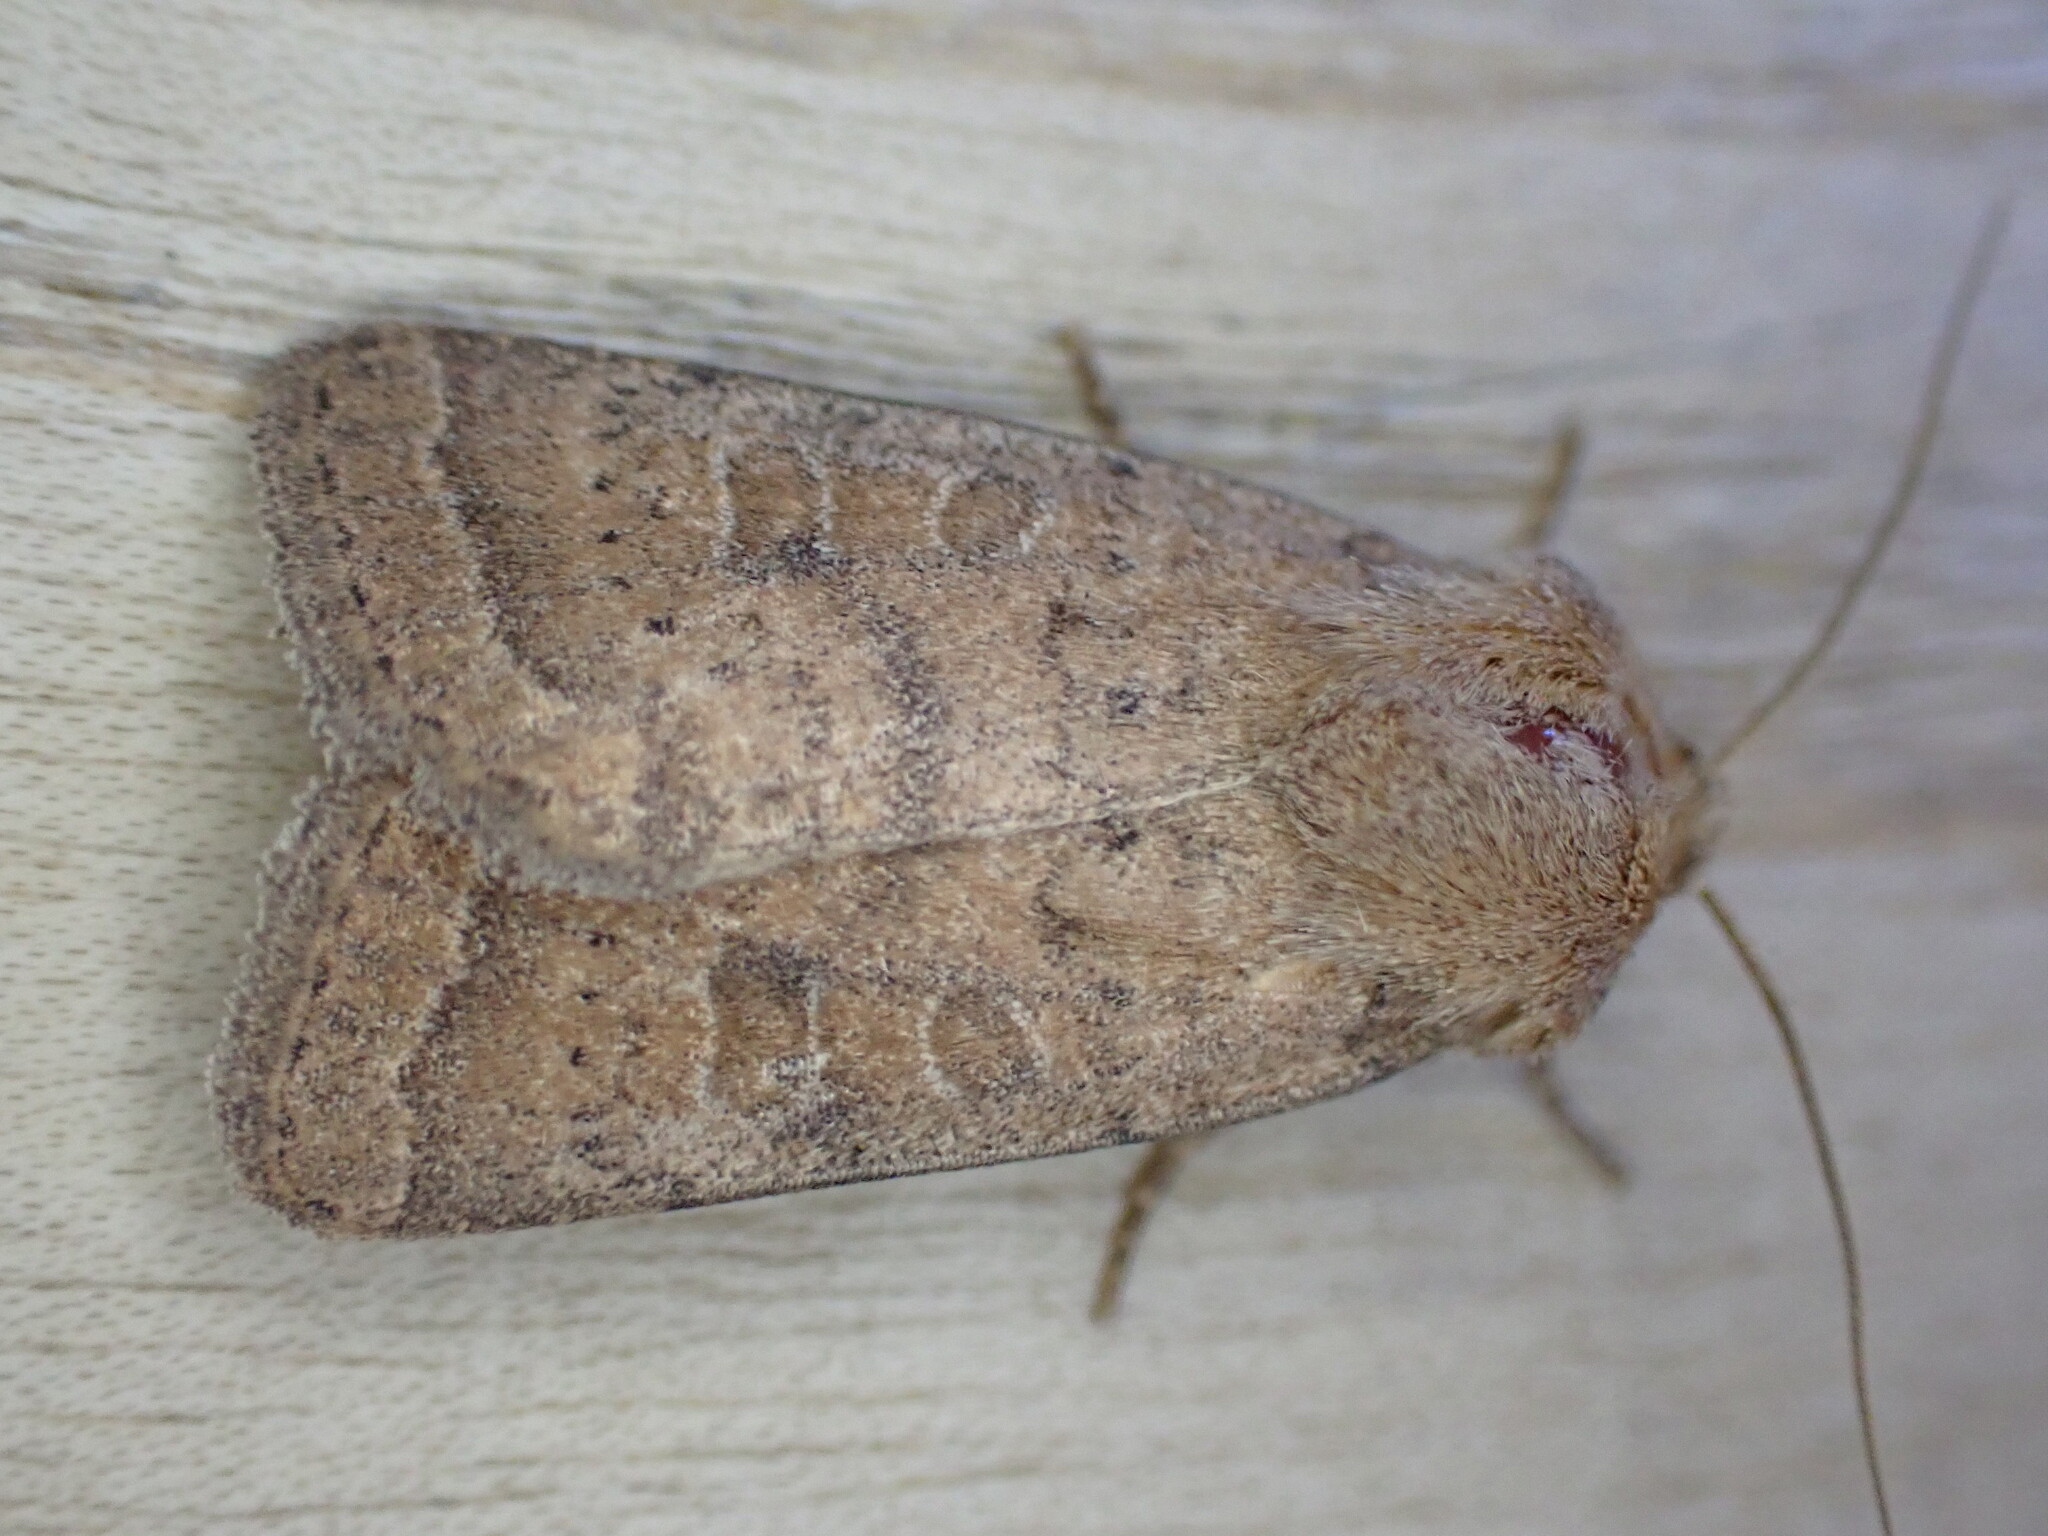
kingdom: Animalia
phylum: Arthropoda
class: Insecta
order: Lepidoptera
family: Noctuidae
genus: Hoplodrina
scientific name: Hoplodrina octogenaria
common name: Uncertain
